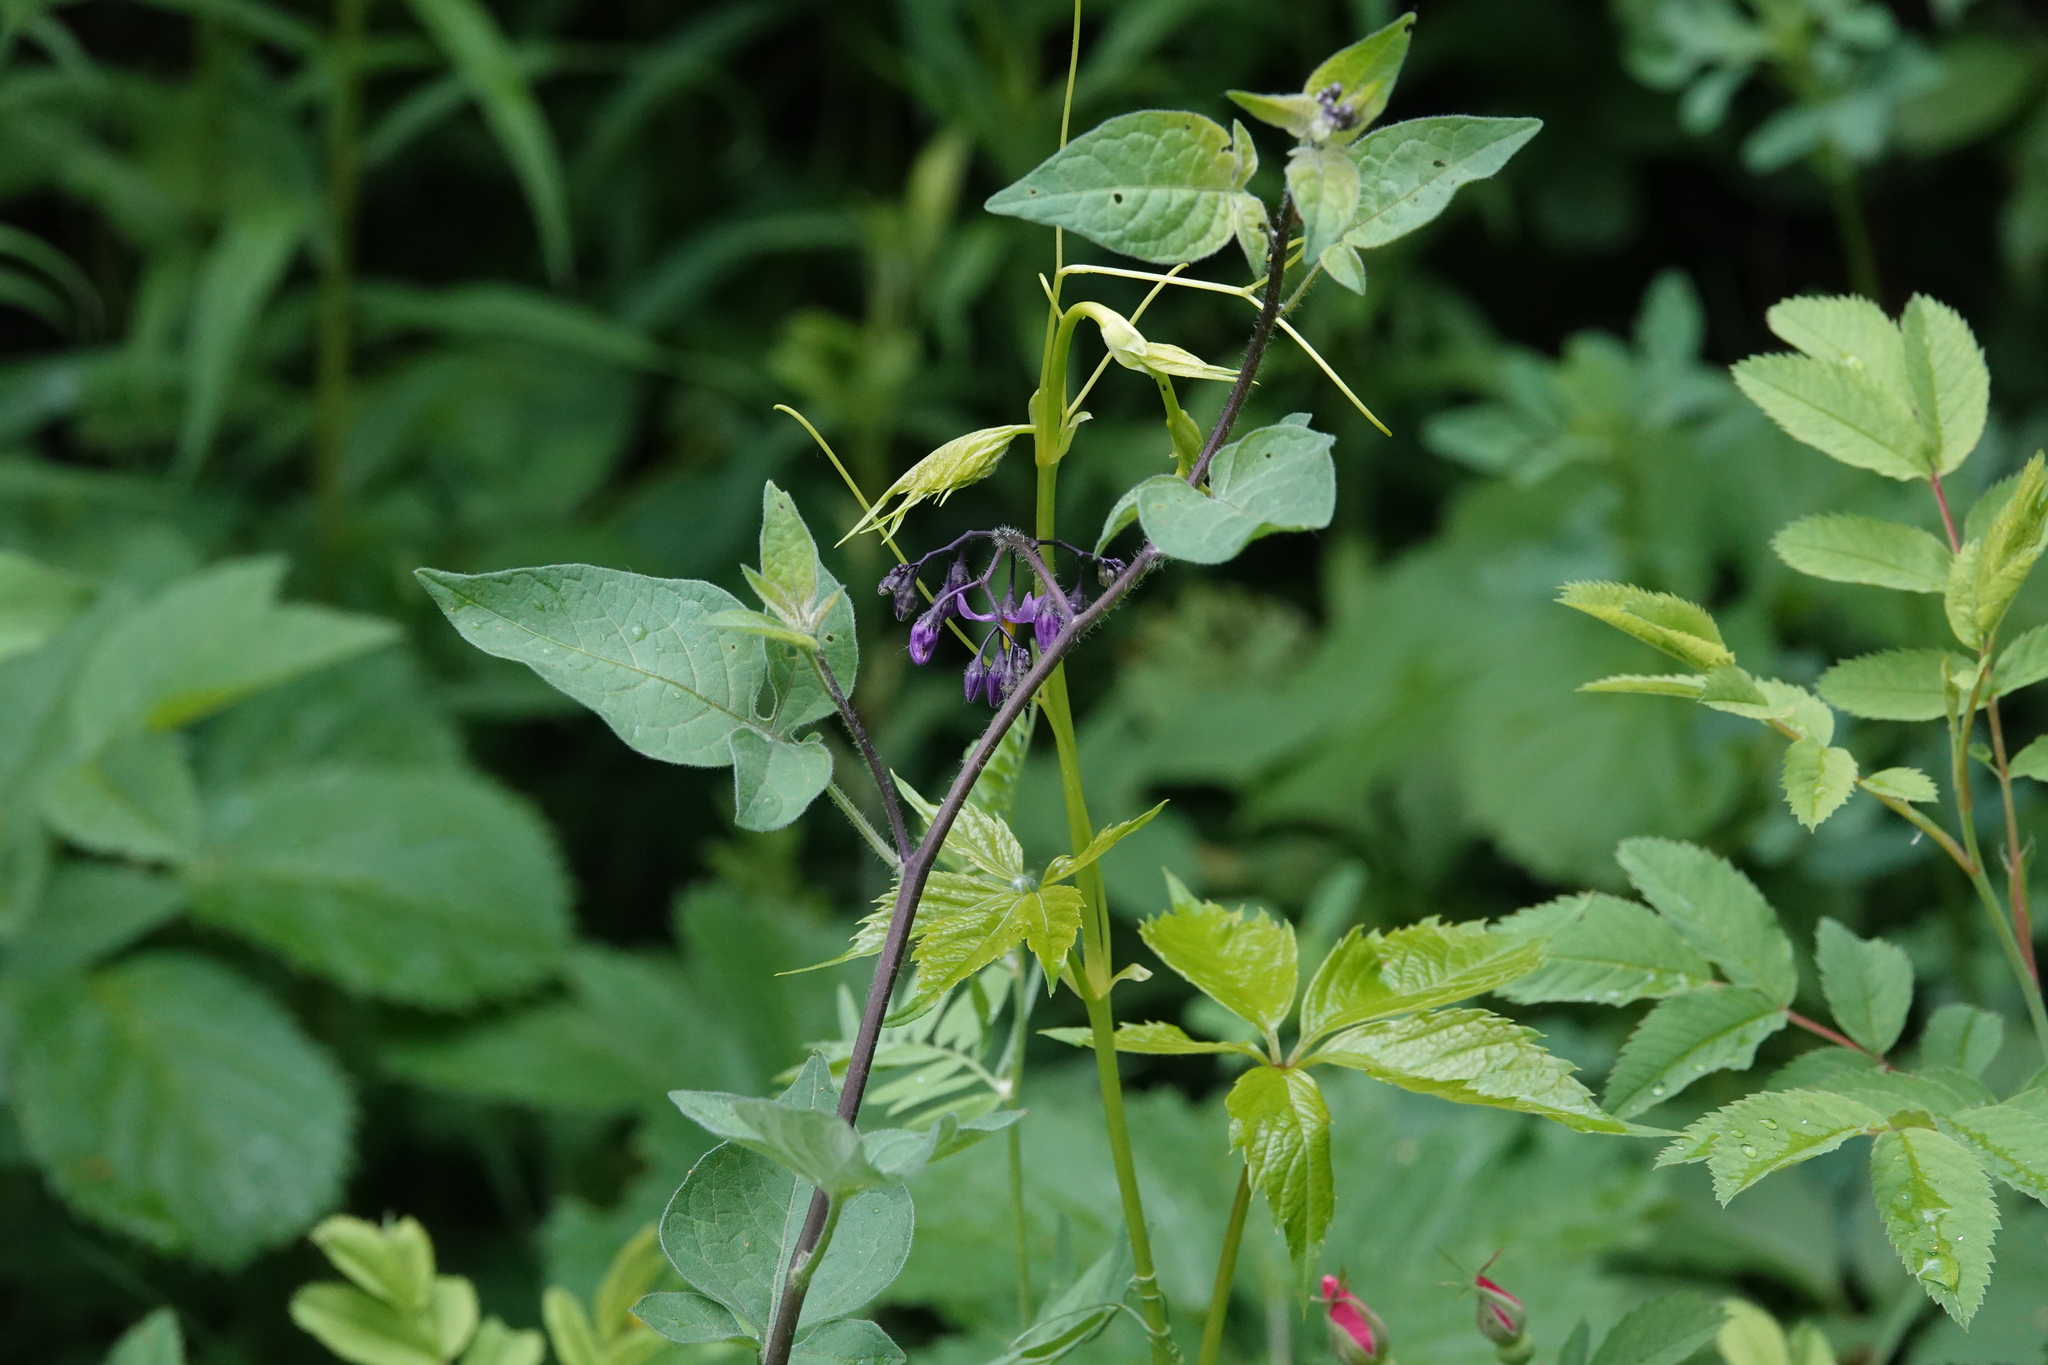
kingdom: Plantae
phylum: Tracheophyta
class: Magnoliopsida
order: Solanales
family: Solanaceae
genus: Solanum
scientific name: Solanum dulcamara
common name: Climbing nightshade
